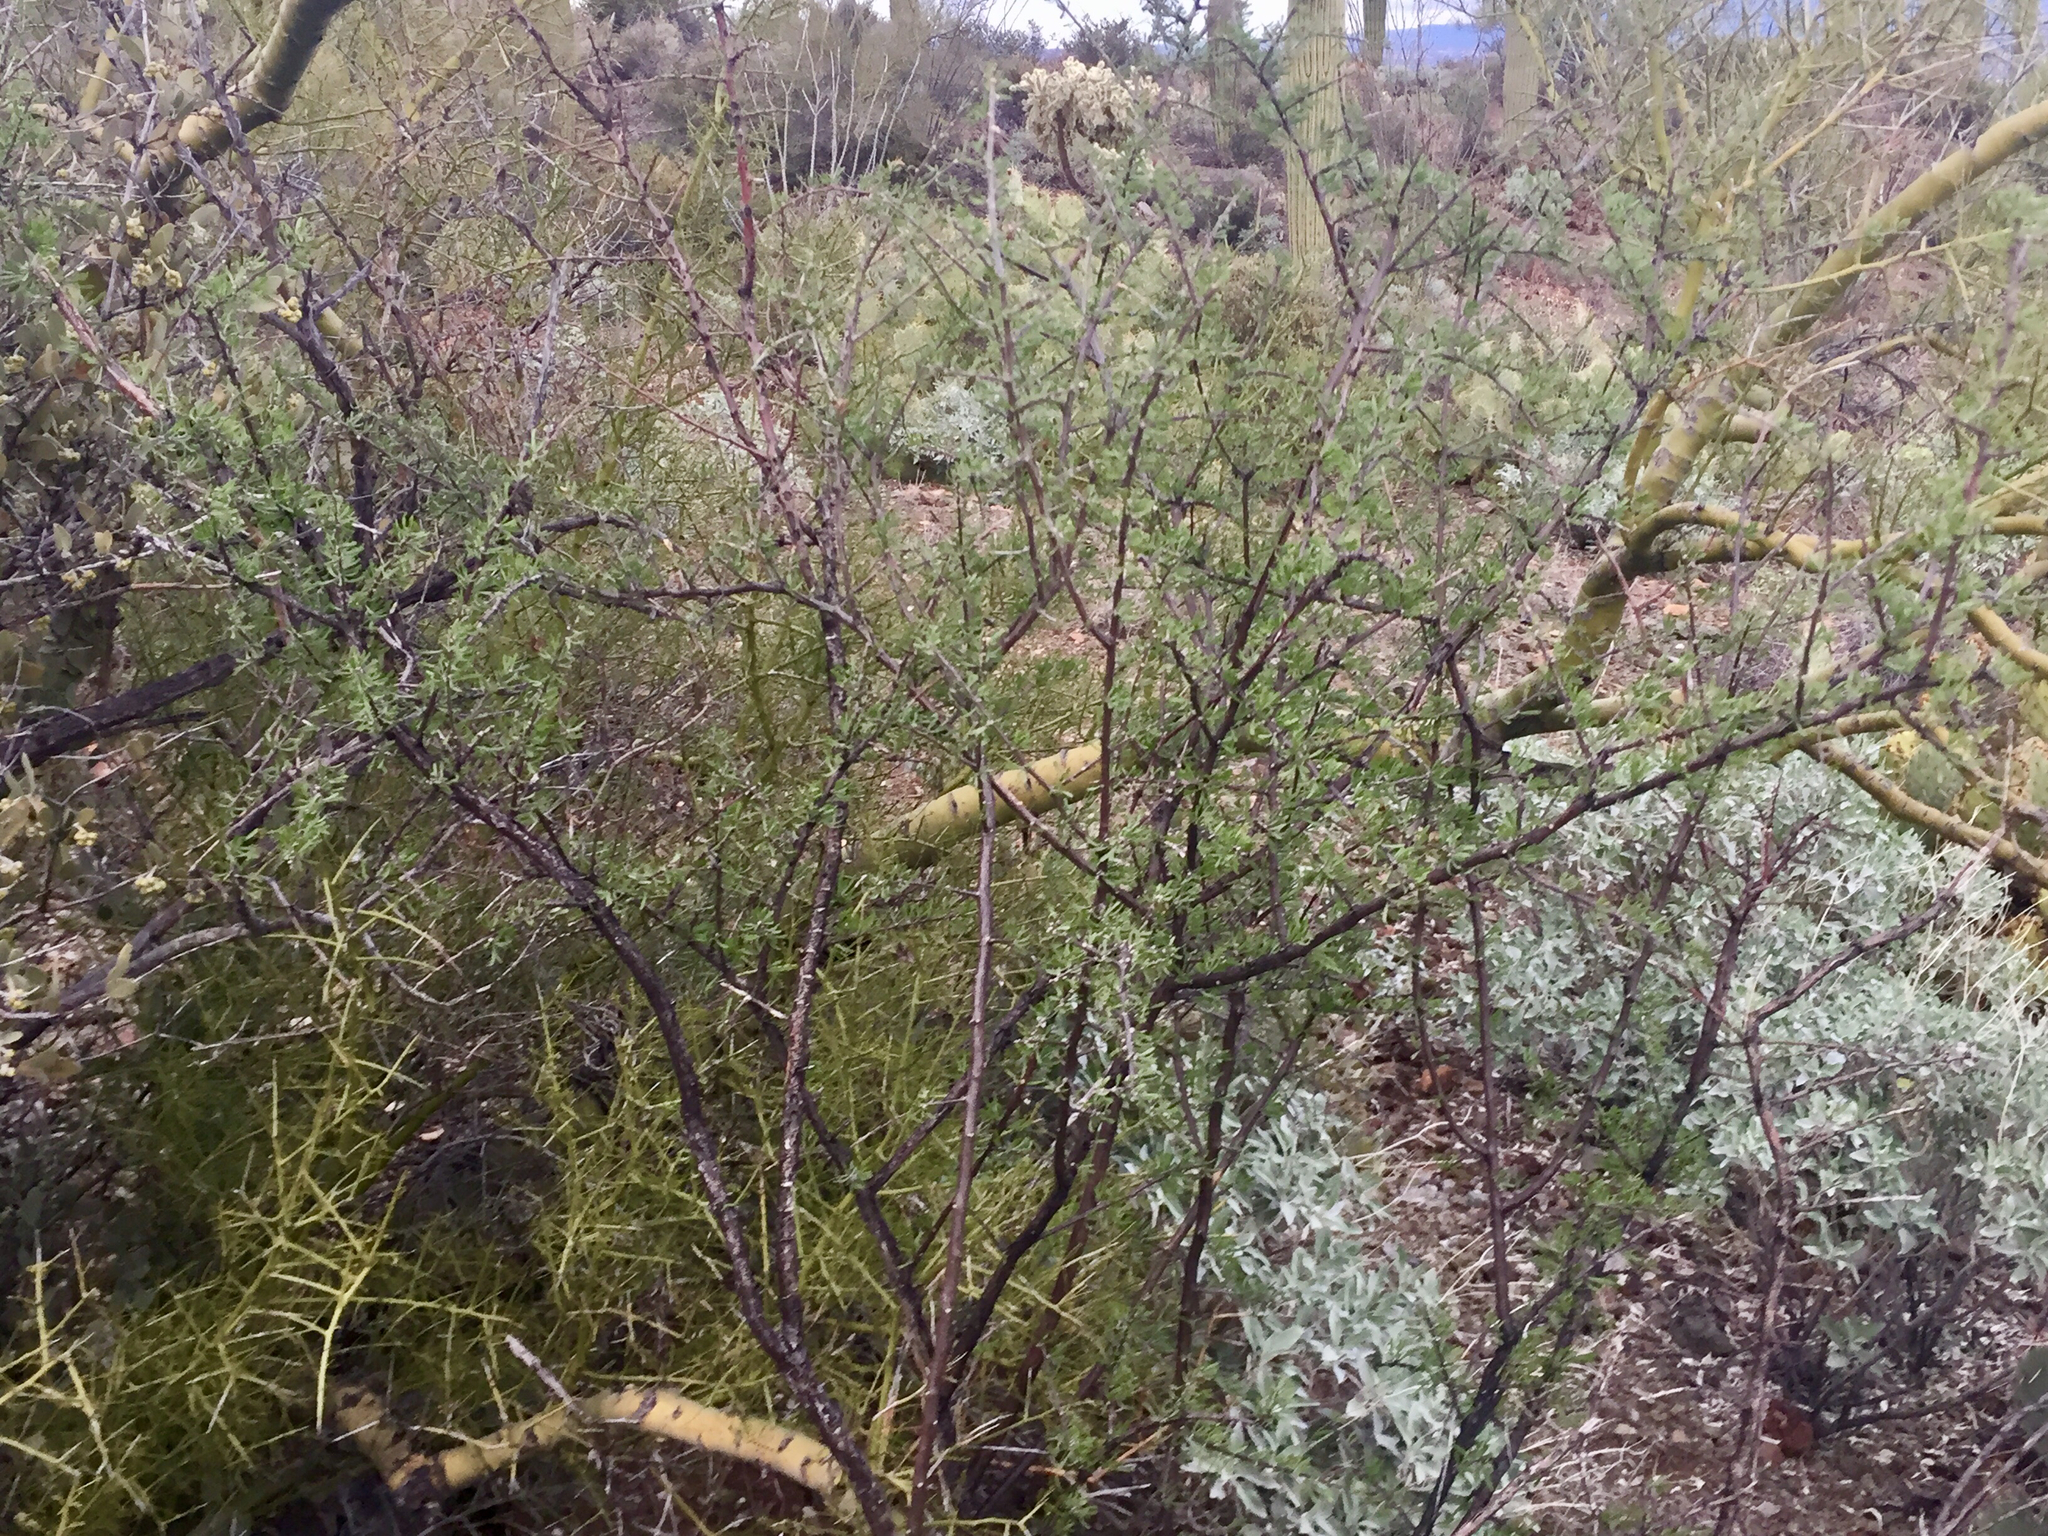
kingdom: Plantae
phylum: Tracheophyta
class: Magnoliopsida
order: Solanales
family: Solanaceae
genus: Lycium
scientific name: Lycium berlandieri
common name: Berlandier wolfberry
